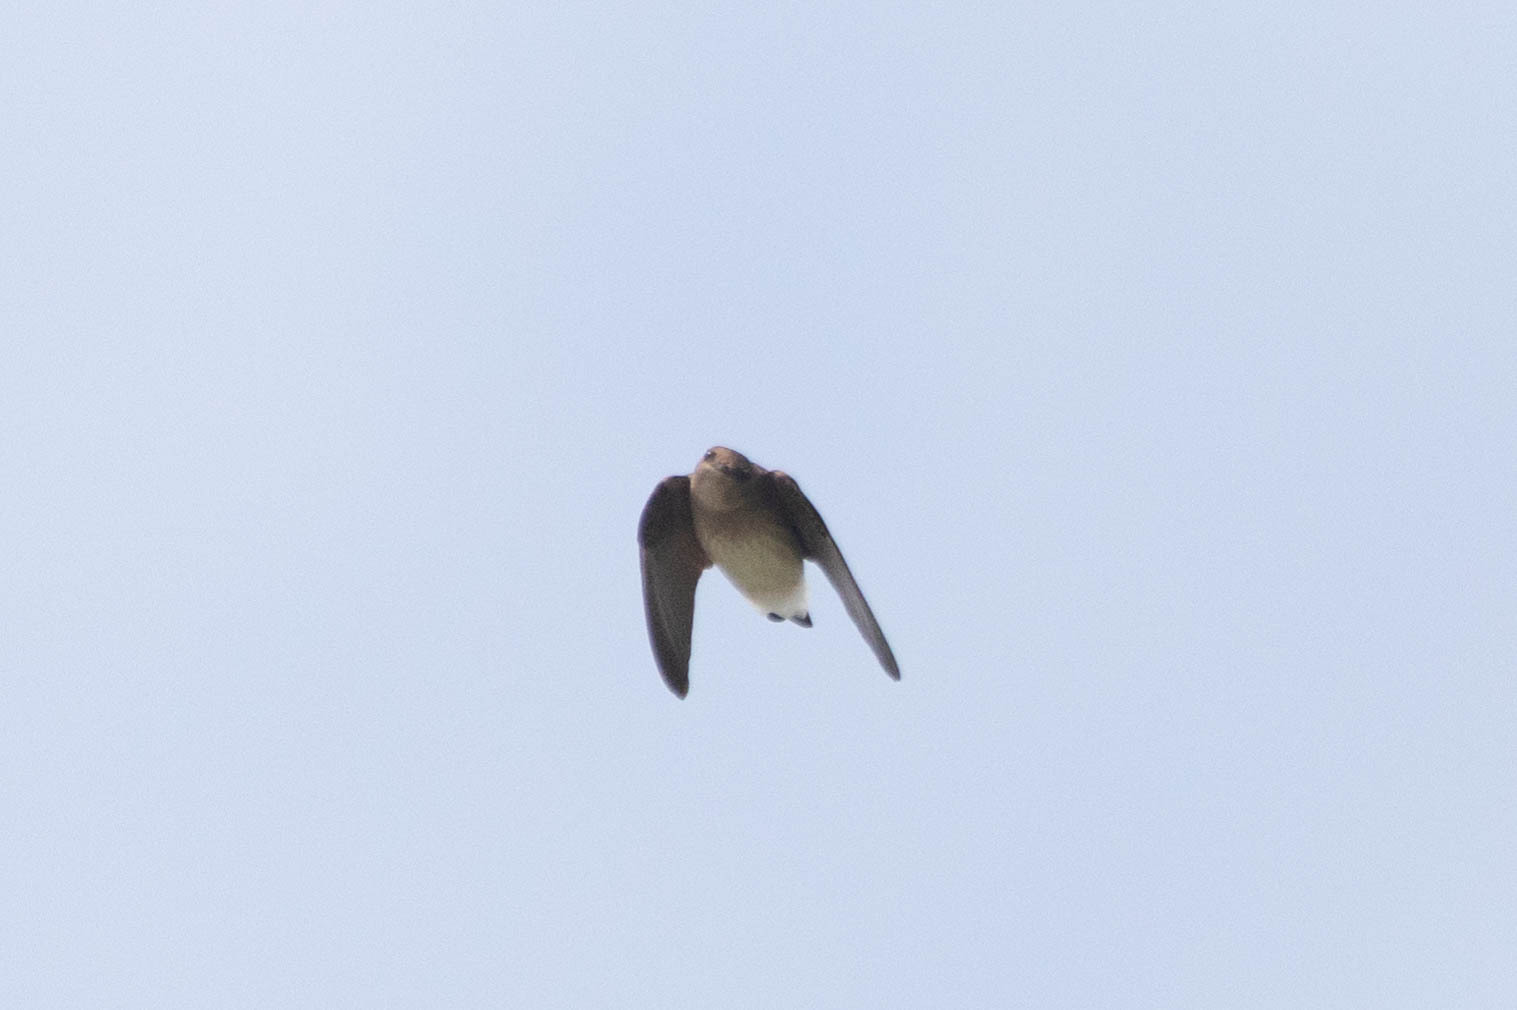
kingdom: Animalia
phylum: Chordata
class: Aves
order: Passeriformes
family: Hirundinidae
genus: Stelgidopteryx
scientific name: Stelgidopteryx serripennis
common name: Northern rough-winged swallow
